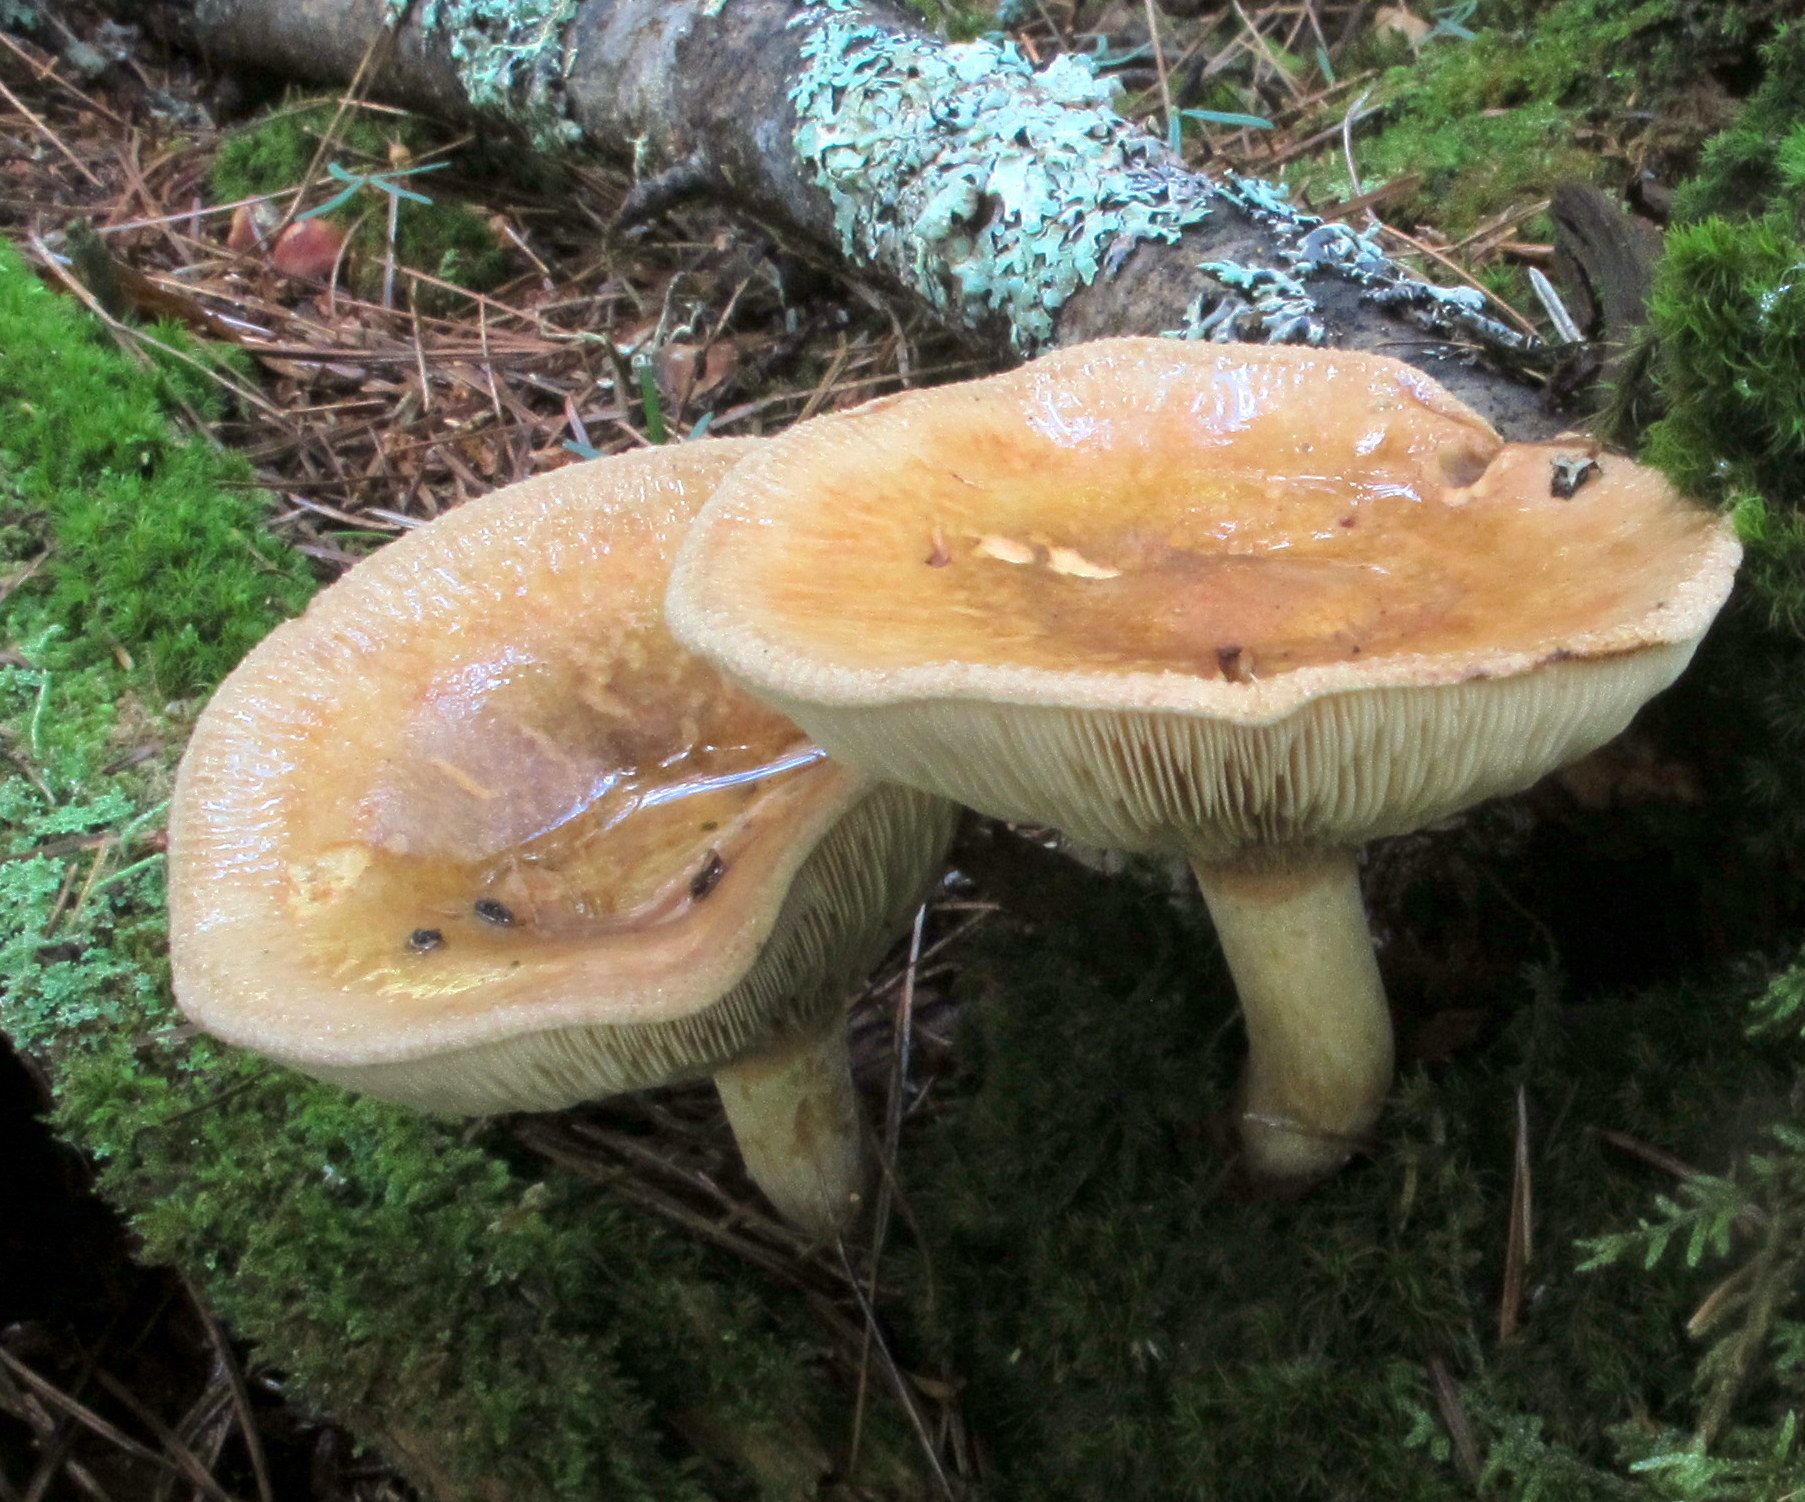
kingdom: Fungi
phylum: Basidiomycota
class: Agaricomycetes
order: Boletales
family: Paxillaceae
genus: Paxillus
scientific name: Paxillus involutus
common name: Brown roll rim
